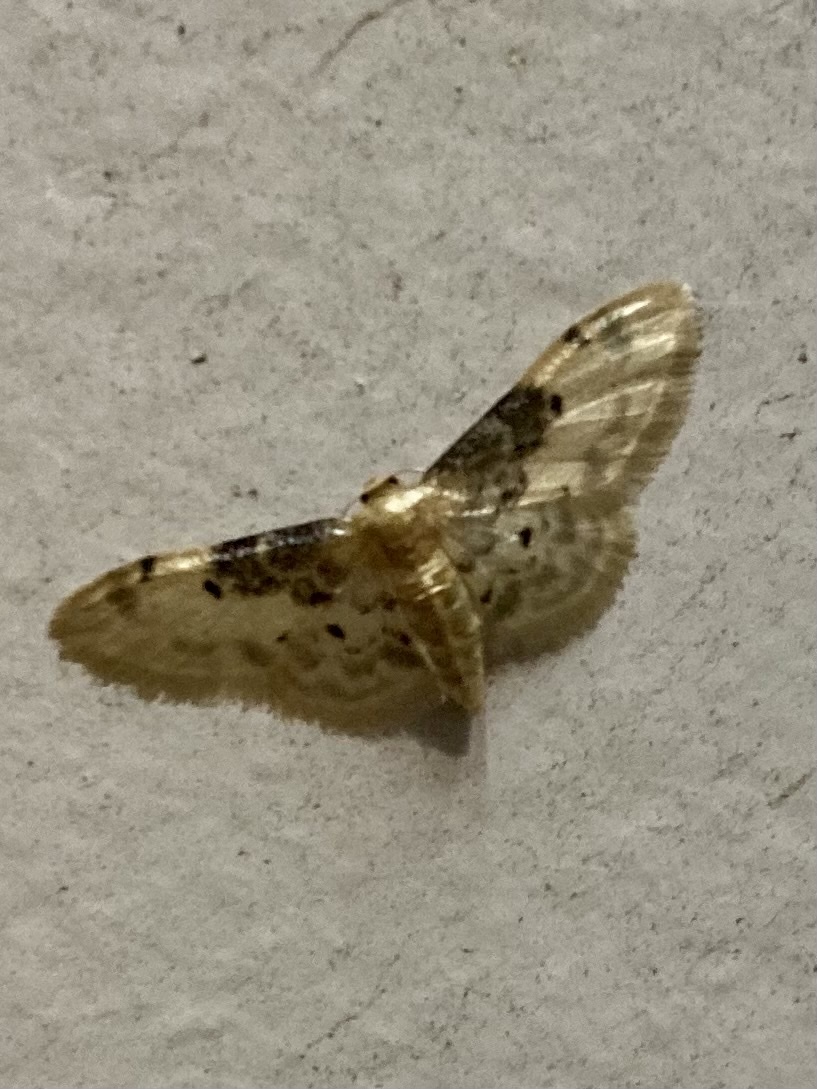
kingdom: Animalia
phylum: Arthropoda
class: Insecta
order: Lepidoptera
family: Geometridae
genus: Idaea
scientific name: Idaea filicata
